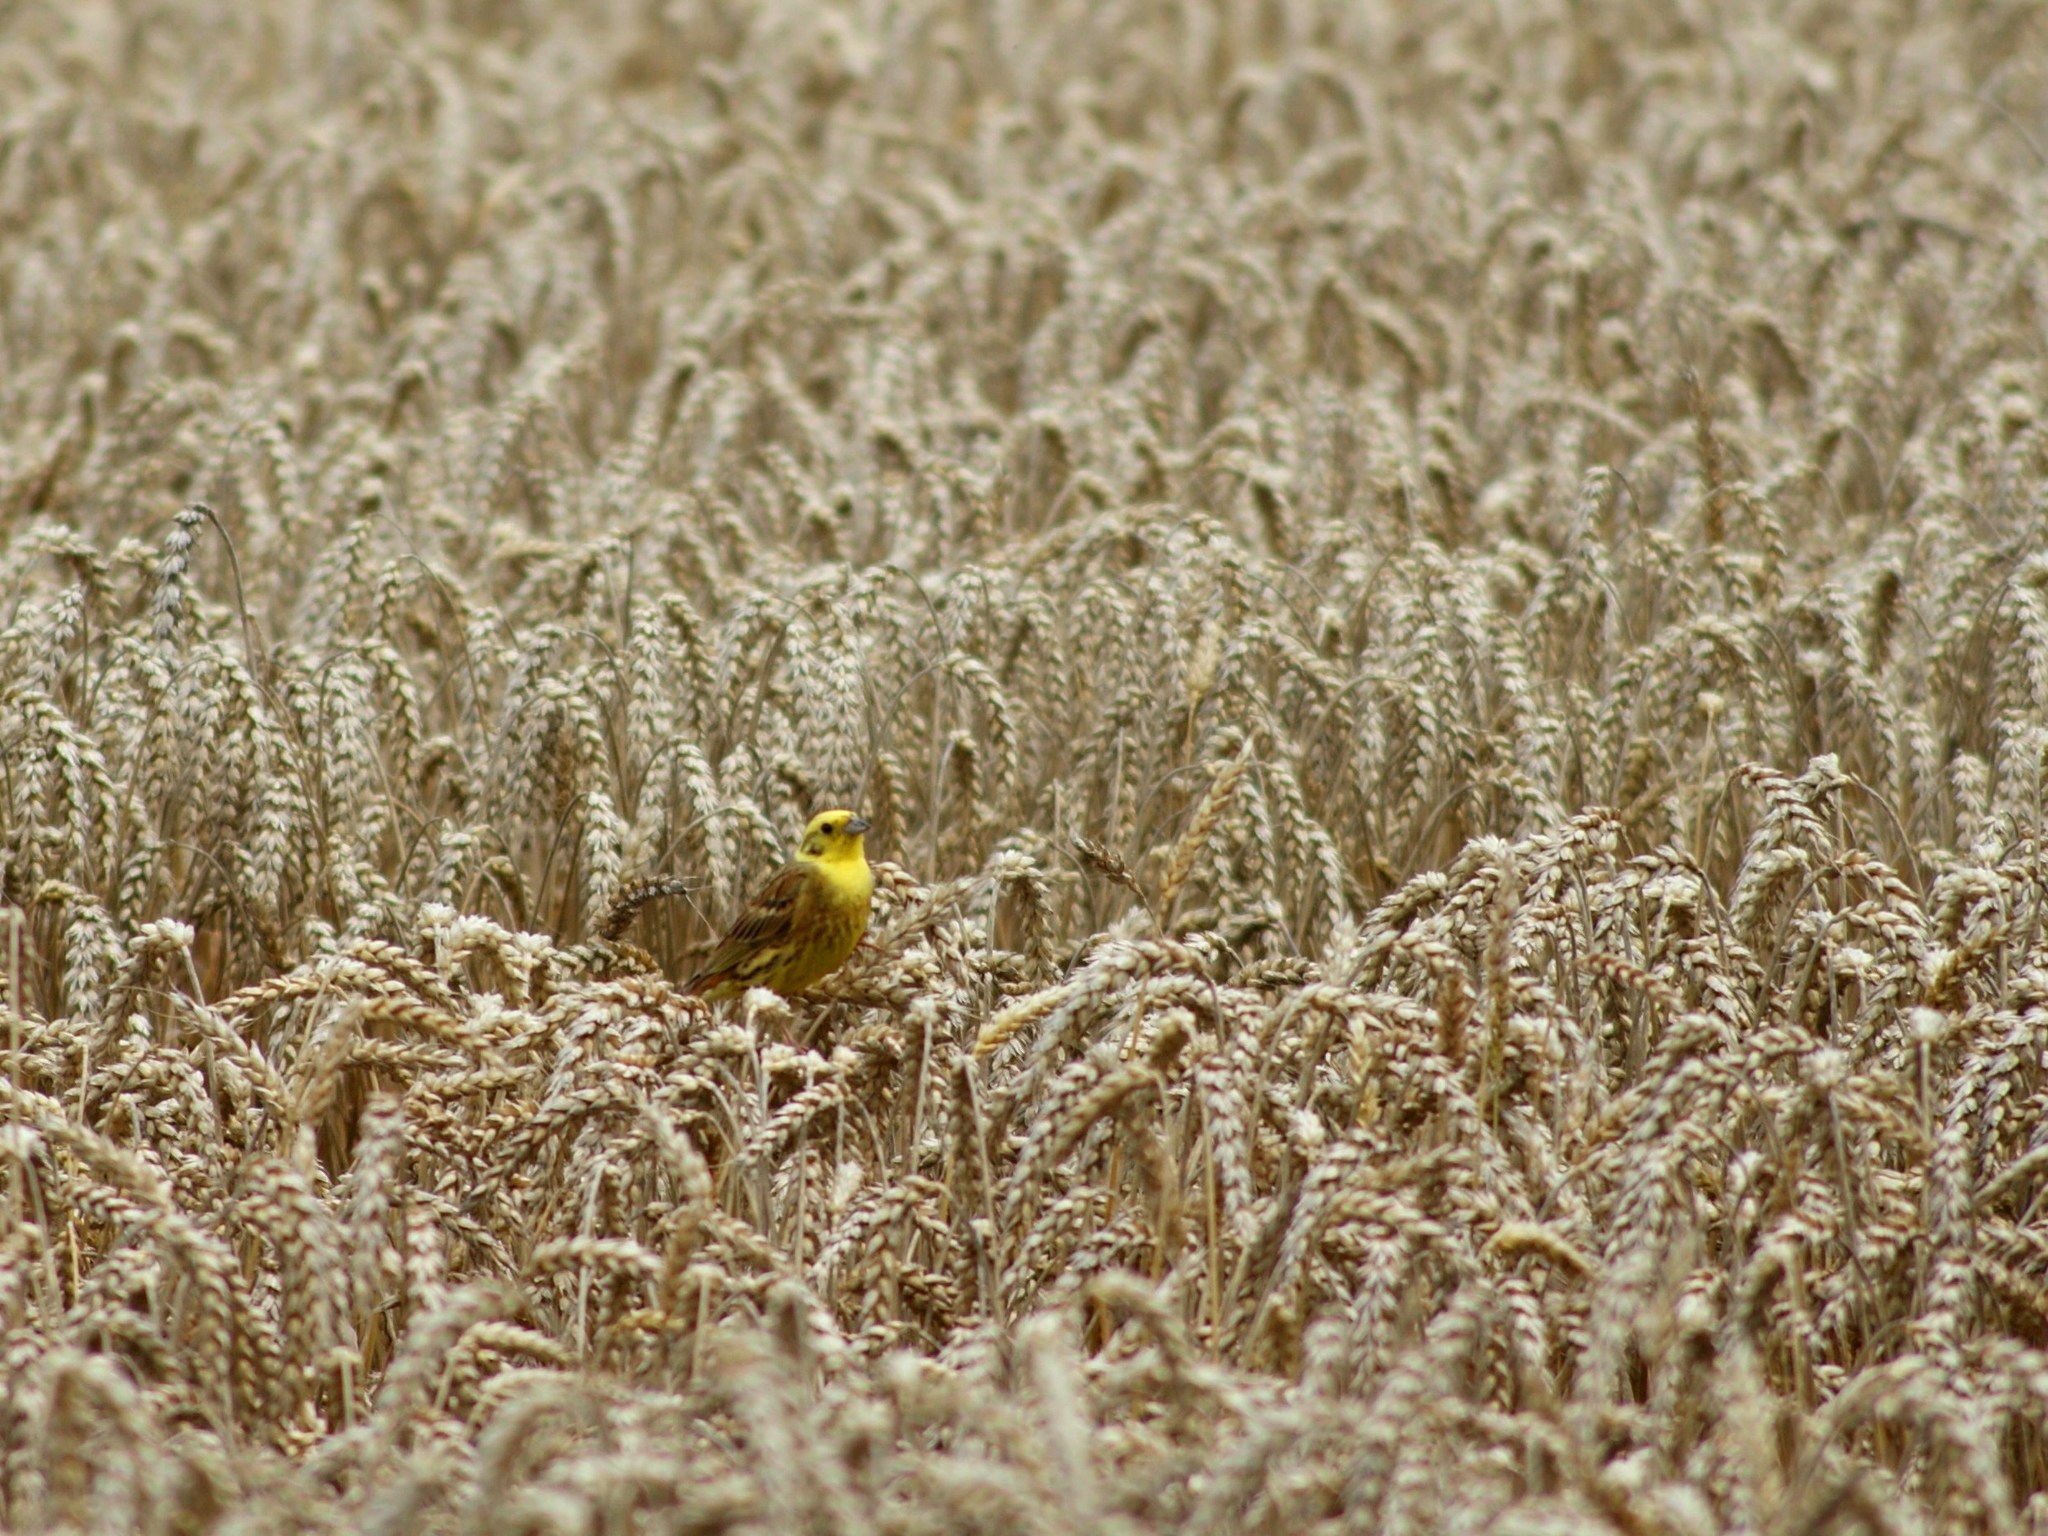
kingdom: Animalia
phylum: Chordata
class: Aves
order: Passeriformes
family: Emberizidae
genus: Emberiza
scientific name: Emberiza citrinella
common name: Yellowhammer
